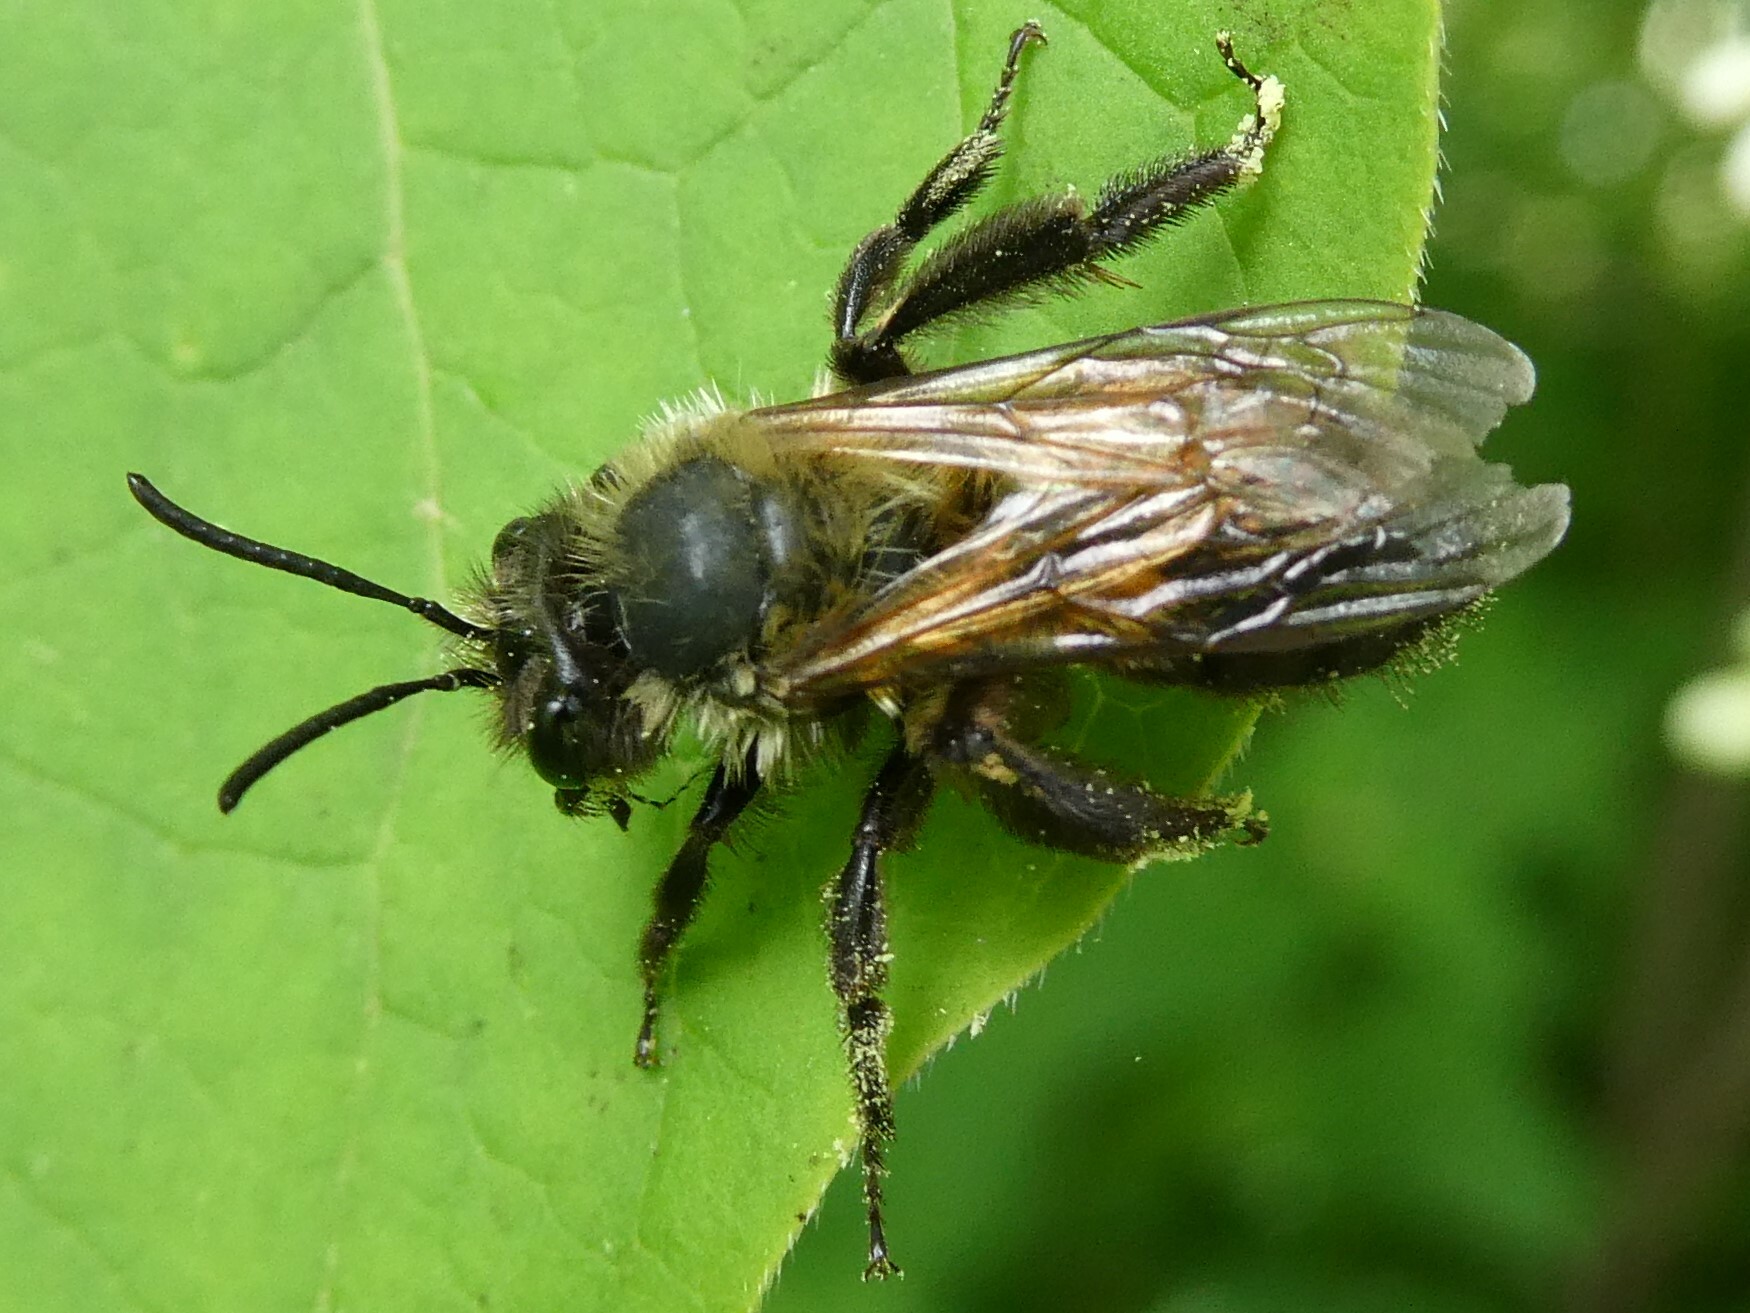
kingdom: Animalia
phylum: Arthropoda
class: Insecta
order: Hymenoptera
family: Andrenidae
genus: Andrena
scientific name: Andrena milwaukeensis
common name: Milwaukee mining bee
